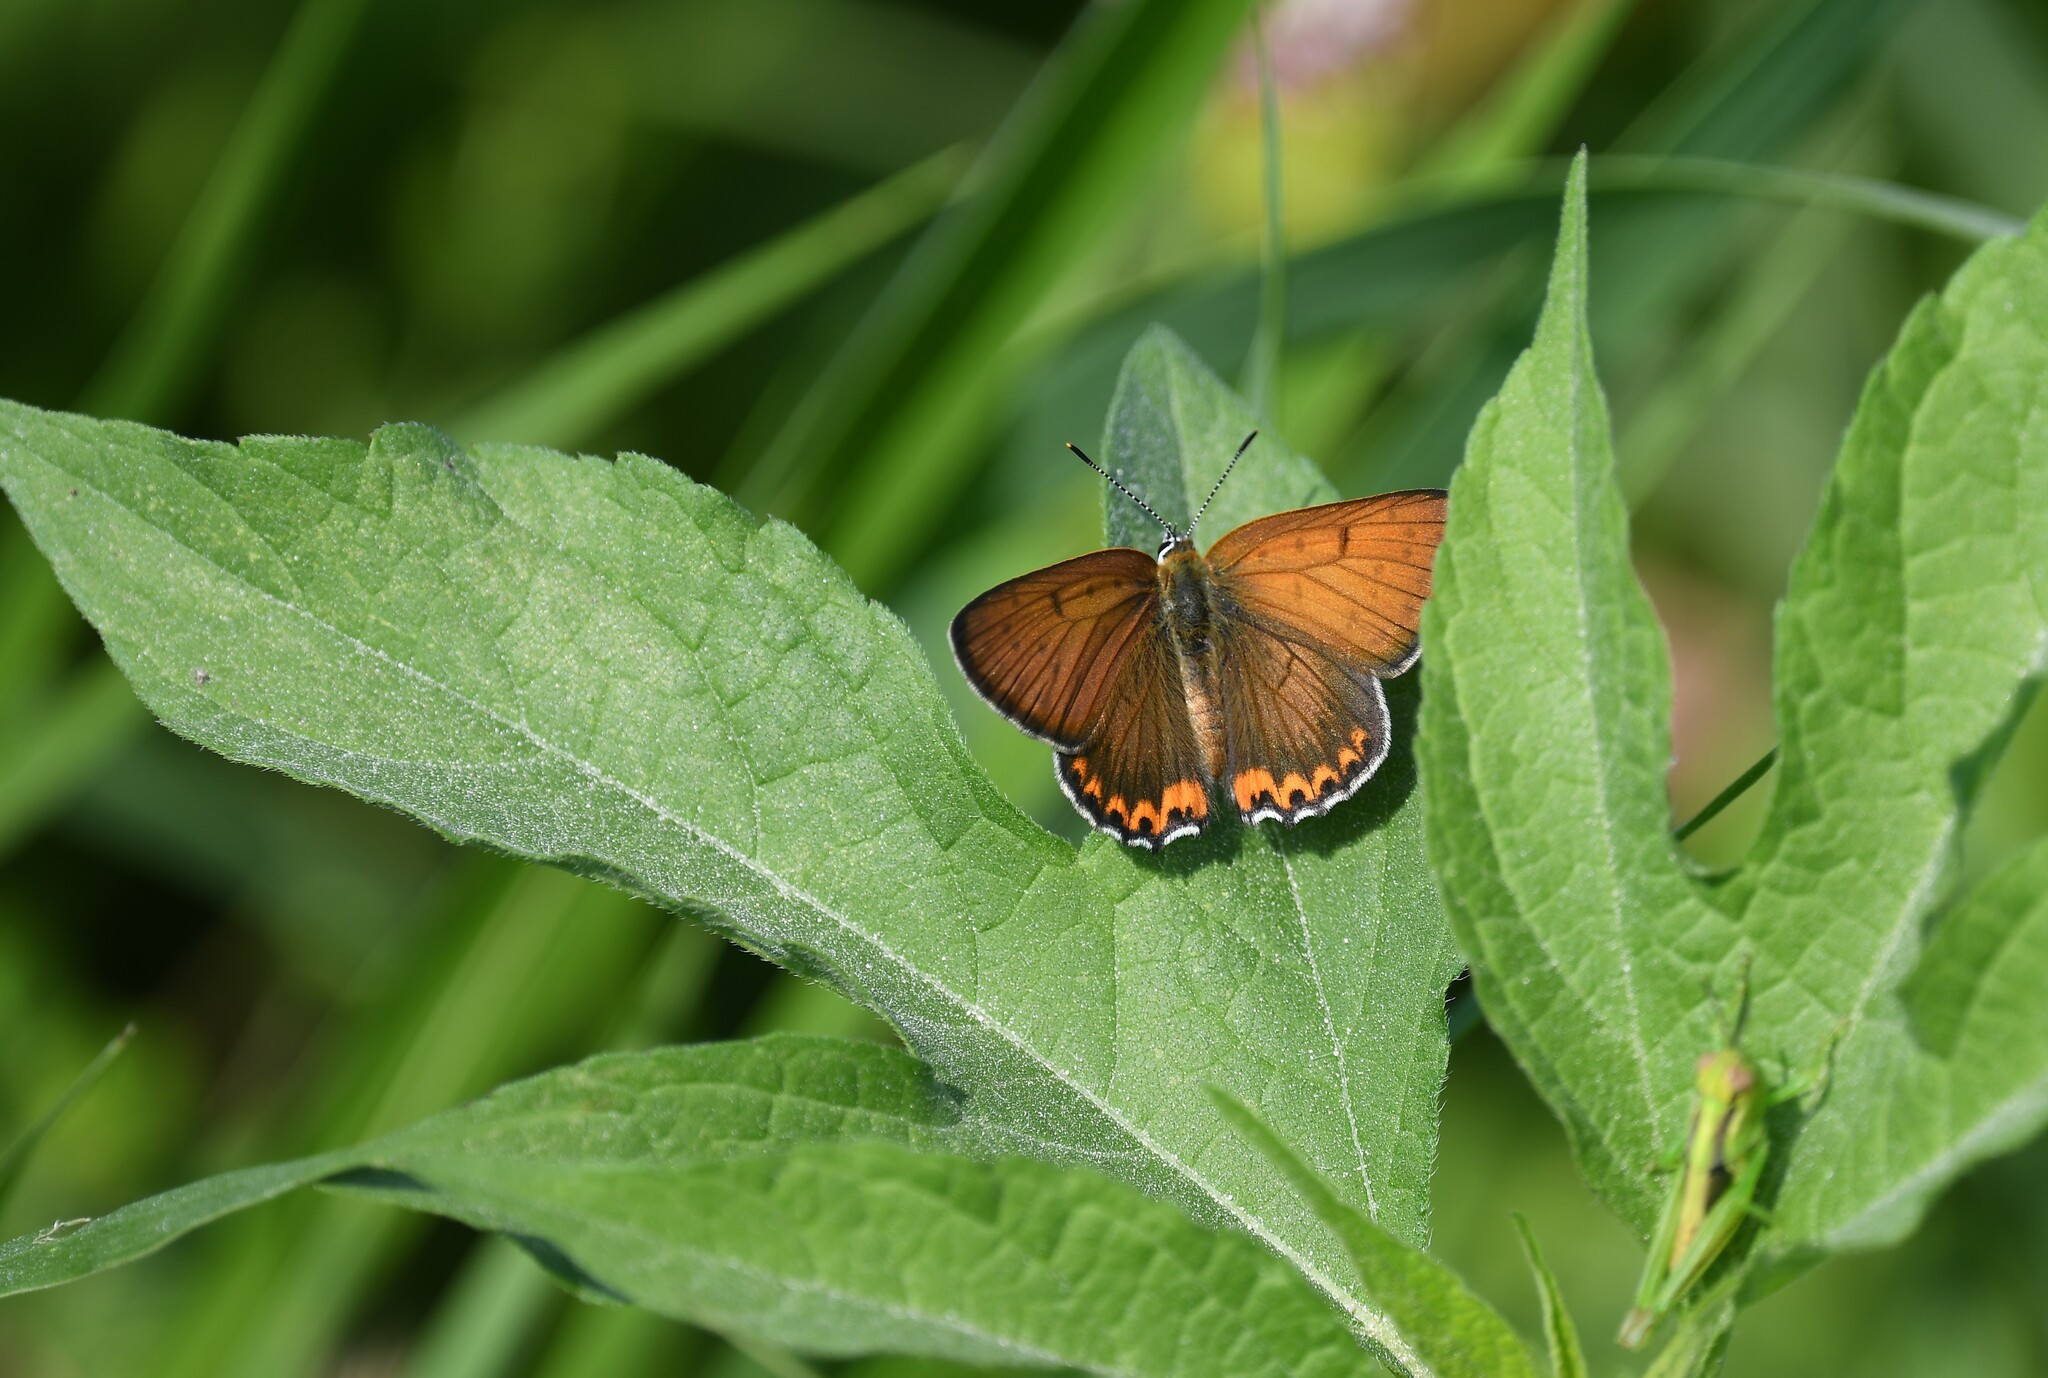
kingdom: Animalia
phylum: Arthropoda
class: Insecta
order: Lepidoptera
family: Lycaenidae
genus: Tharsalea
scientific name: Tharsalea hyllus
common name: Bronze copper
